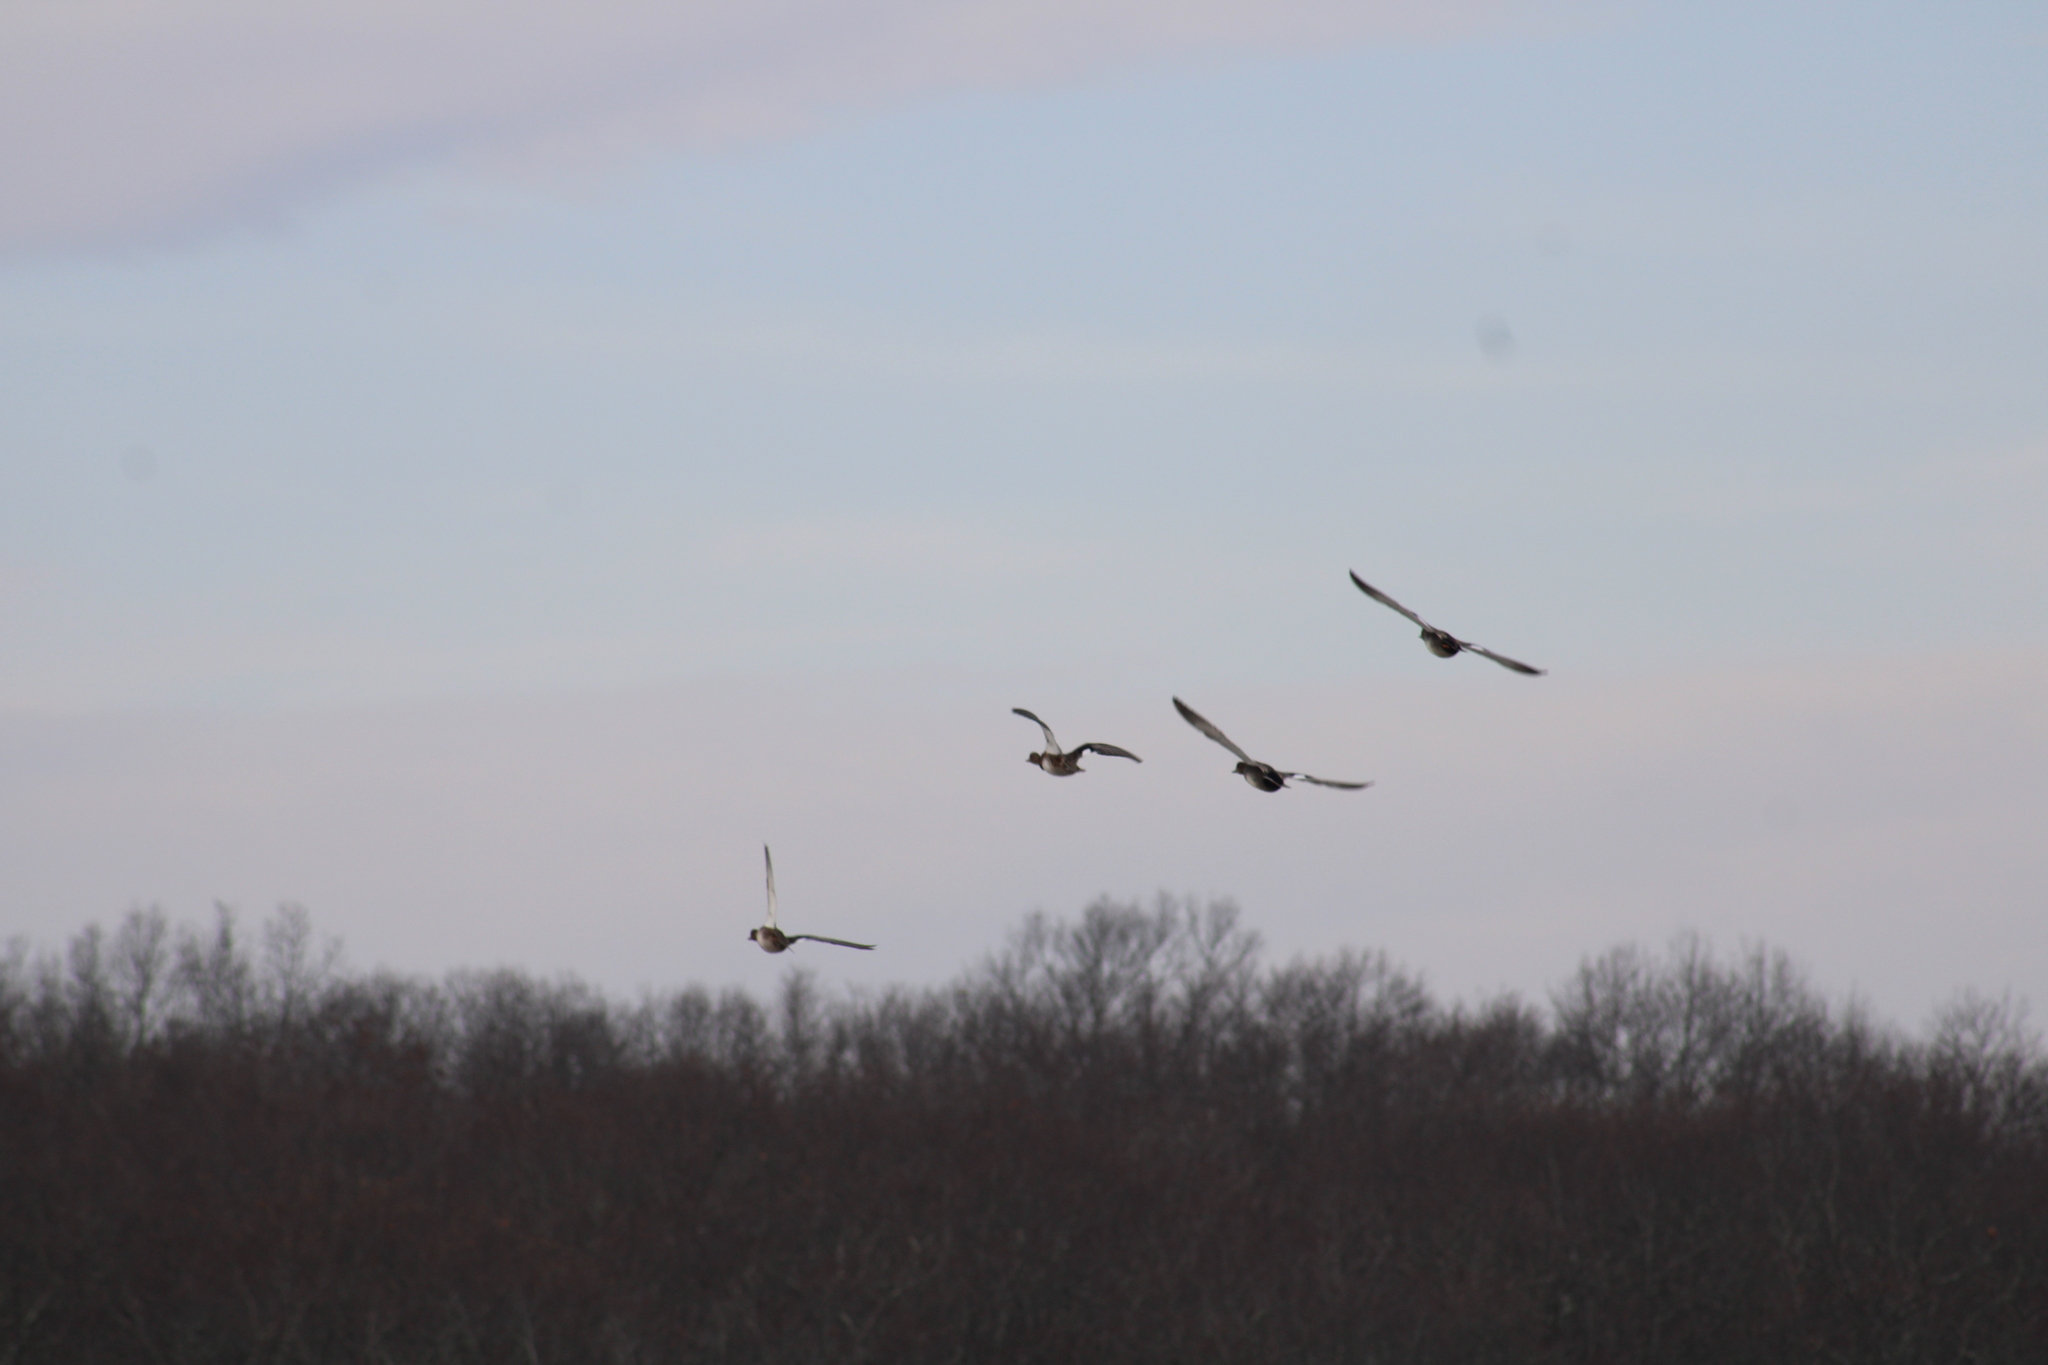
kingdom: Animalia
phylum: Chordata
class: Aves
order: Anseriformes
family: Anatidae
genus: Mareca
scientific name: Mareca strepera
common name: Gadwall
